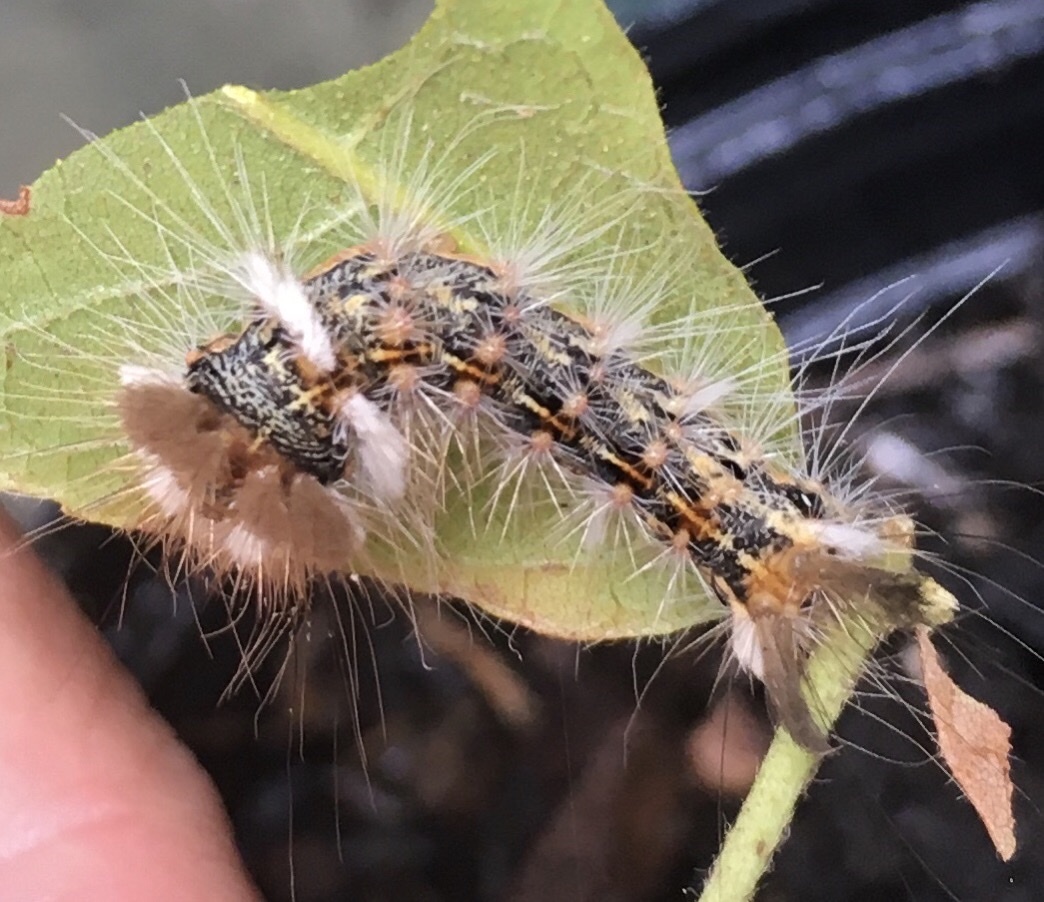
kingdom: Animalia
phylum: Arthropoda
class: Insecta
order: Lepidoptera
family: Noctuidae
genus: Acronicta
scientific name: Acronicta impleta
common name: Powdered dagger
